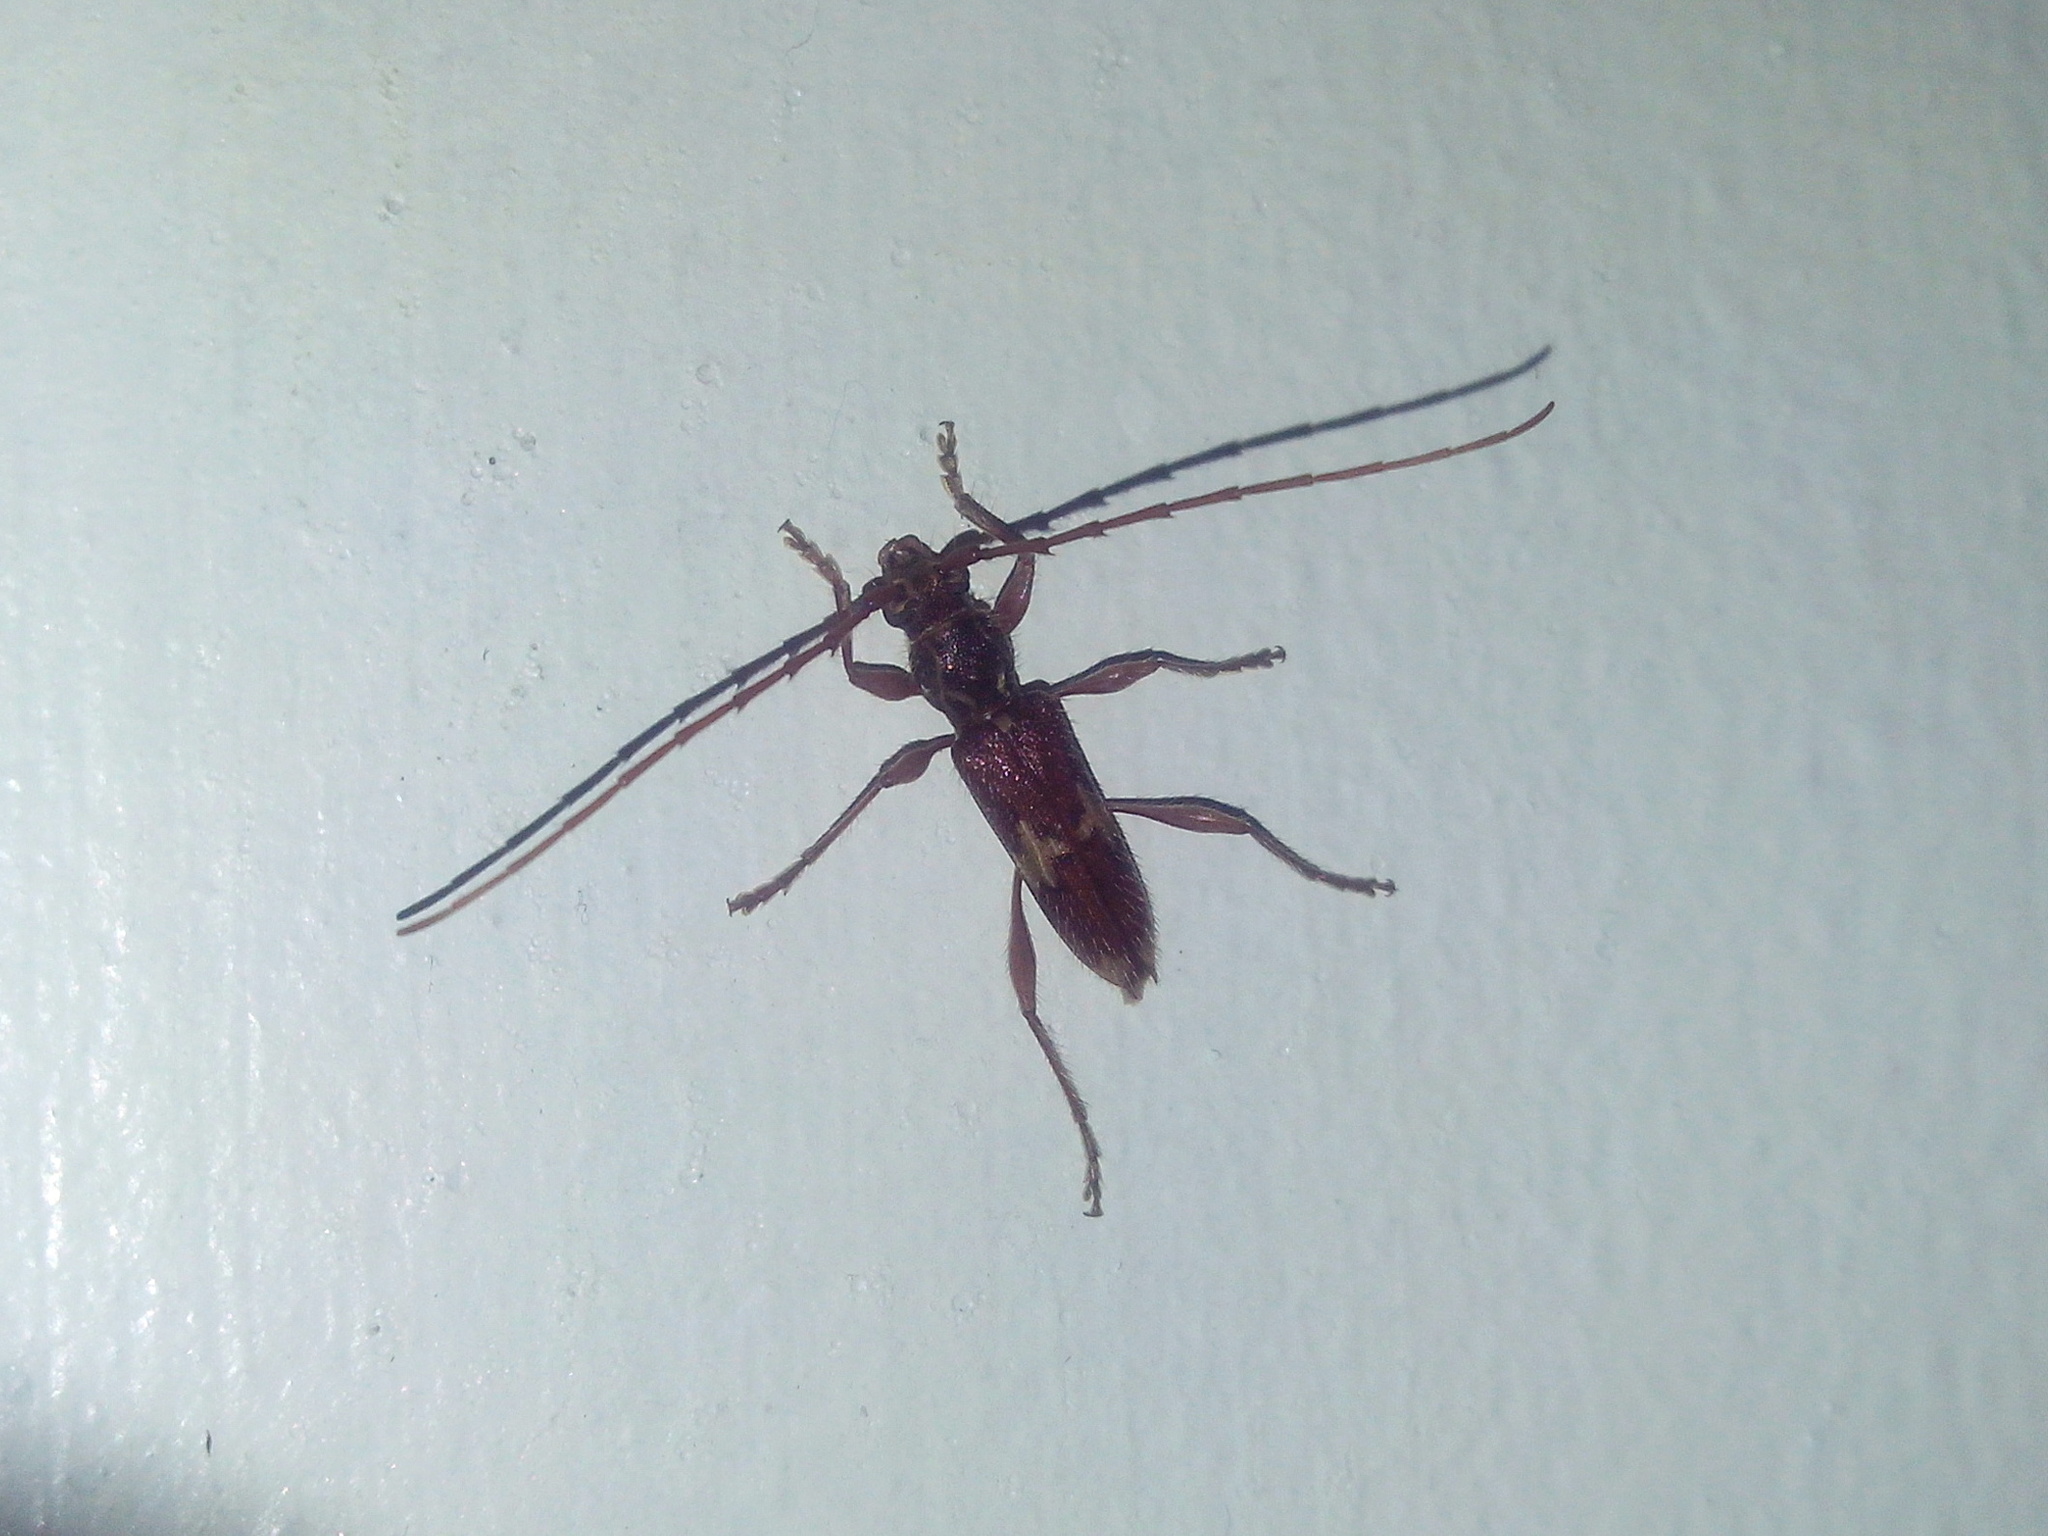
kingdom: Animalia
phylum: Arthropoda
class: Insecta
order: Coleoptera
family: Cerambycidae
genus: Eurysthea
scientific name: Eurysthea hirta
